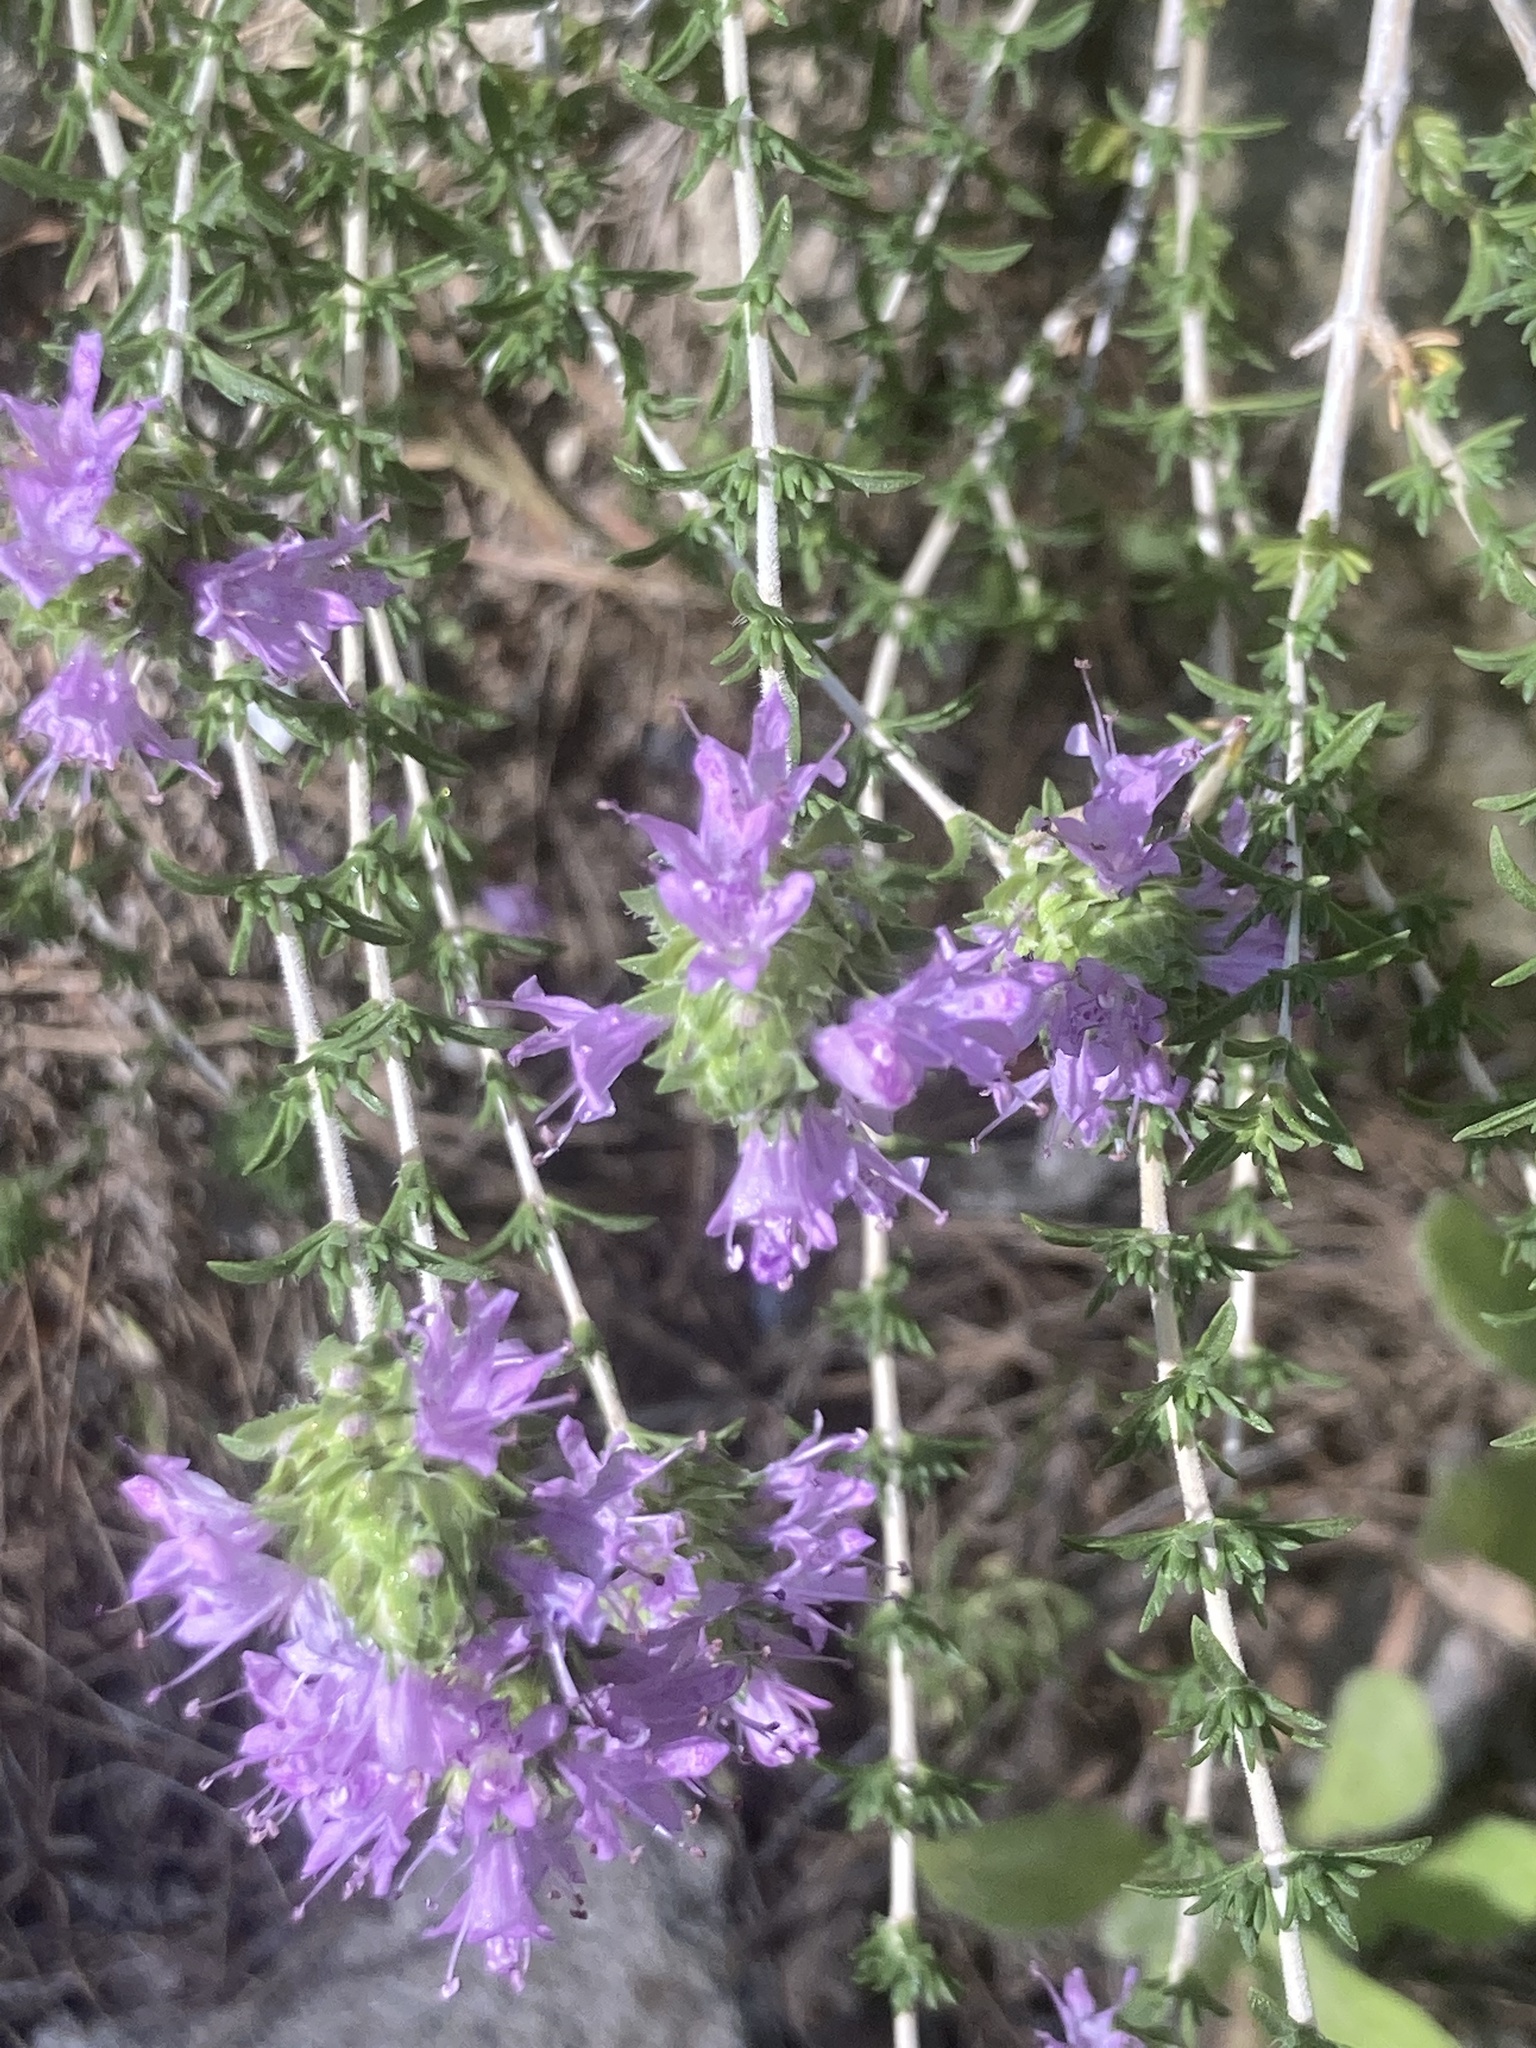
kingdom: Plantae
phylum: Tracheophyta
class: Magnoliopsida
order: Lamiales
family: Lamiaceae
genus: Thymbra
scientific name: Thymbra capitata
